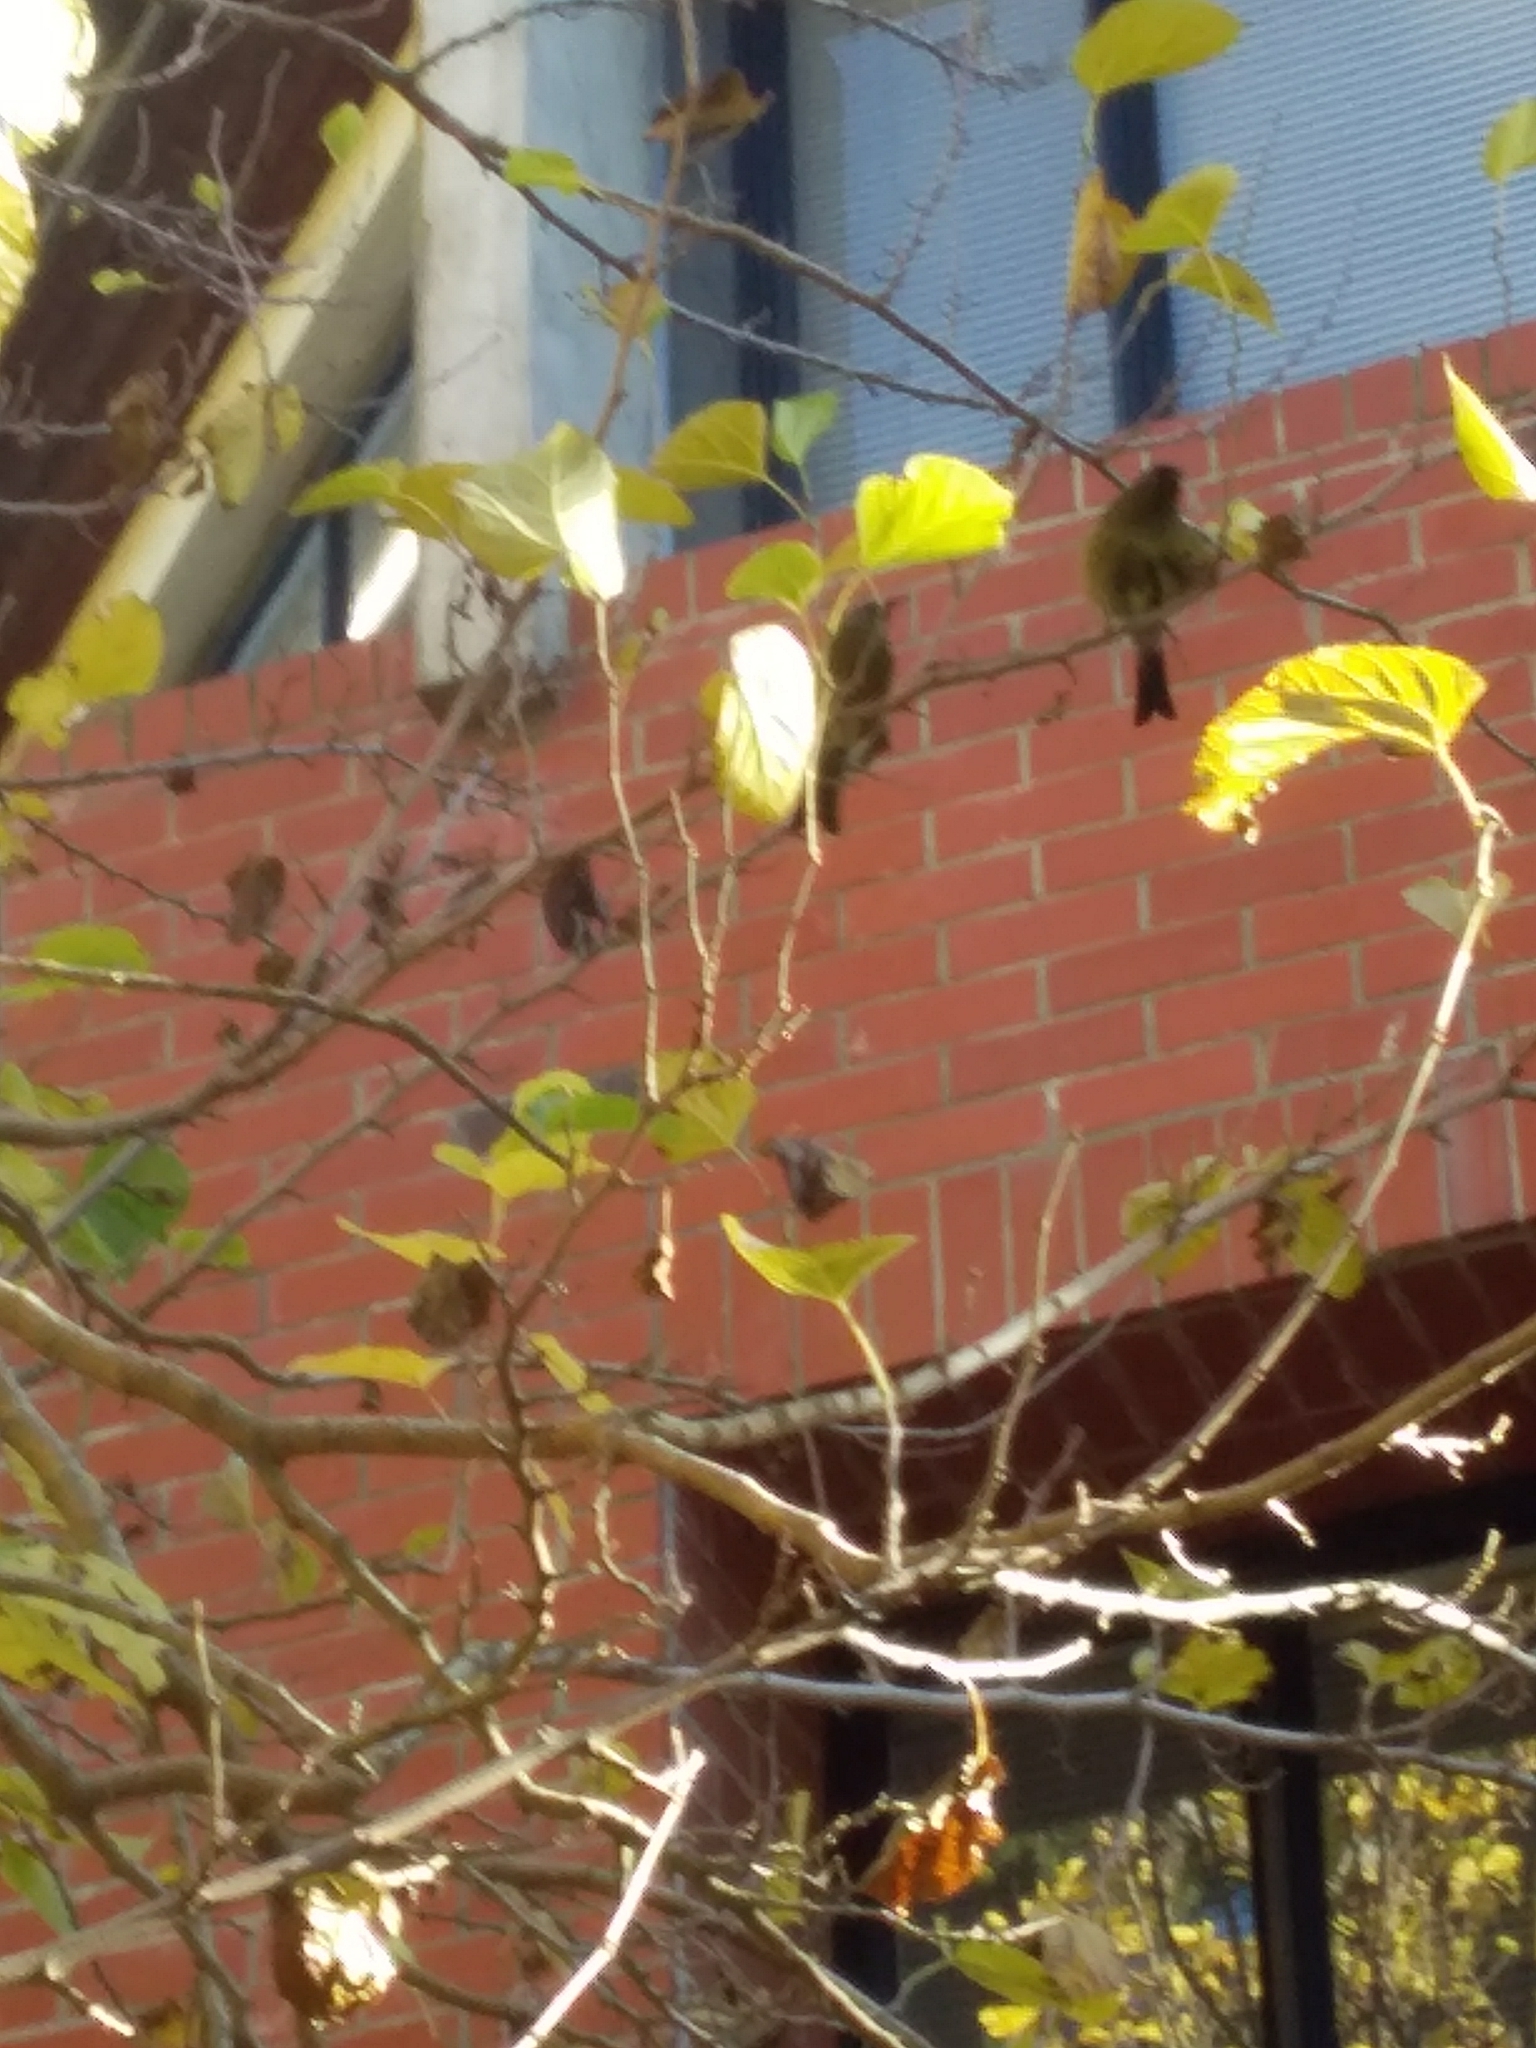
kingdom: Animalia
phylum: Chordata
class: Aves
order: Passeriformes
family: Meliphagidae
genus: Anthornis
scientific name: Anthornis melanura
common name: New zealand bellbird
